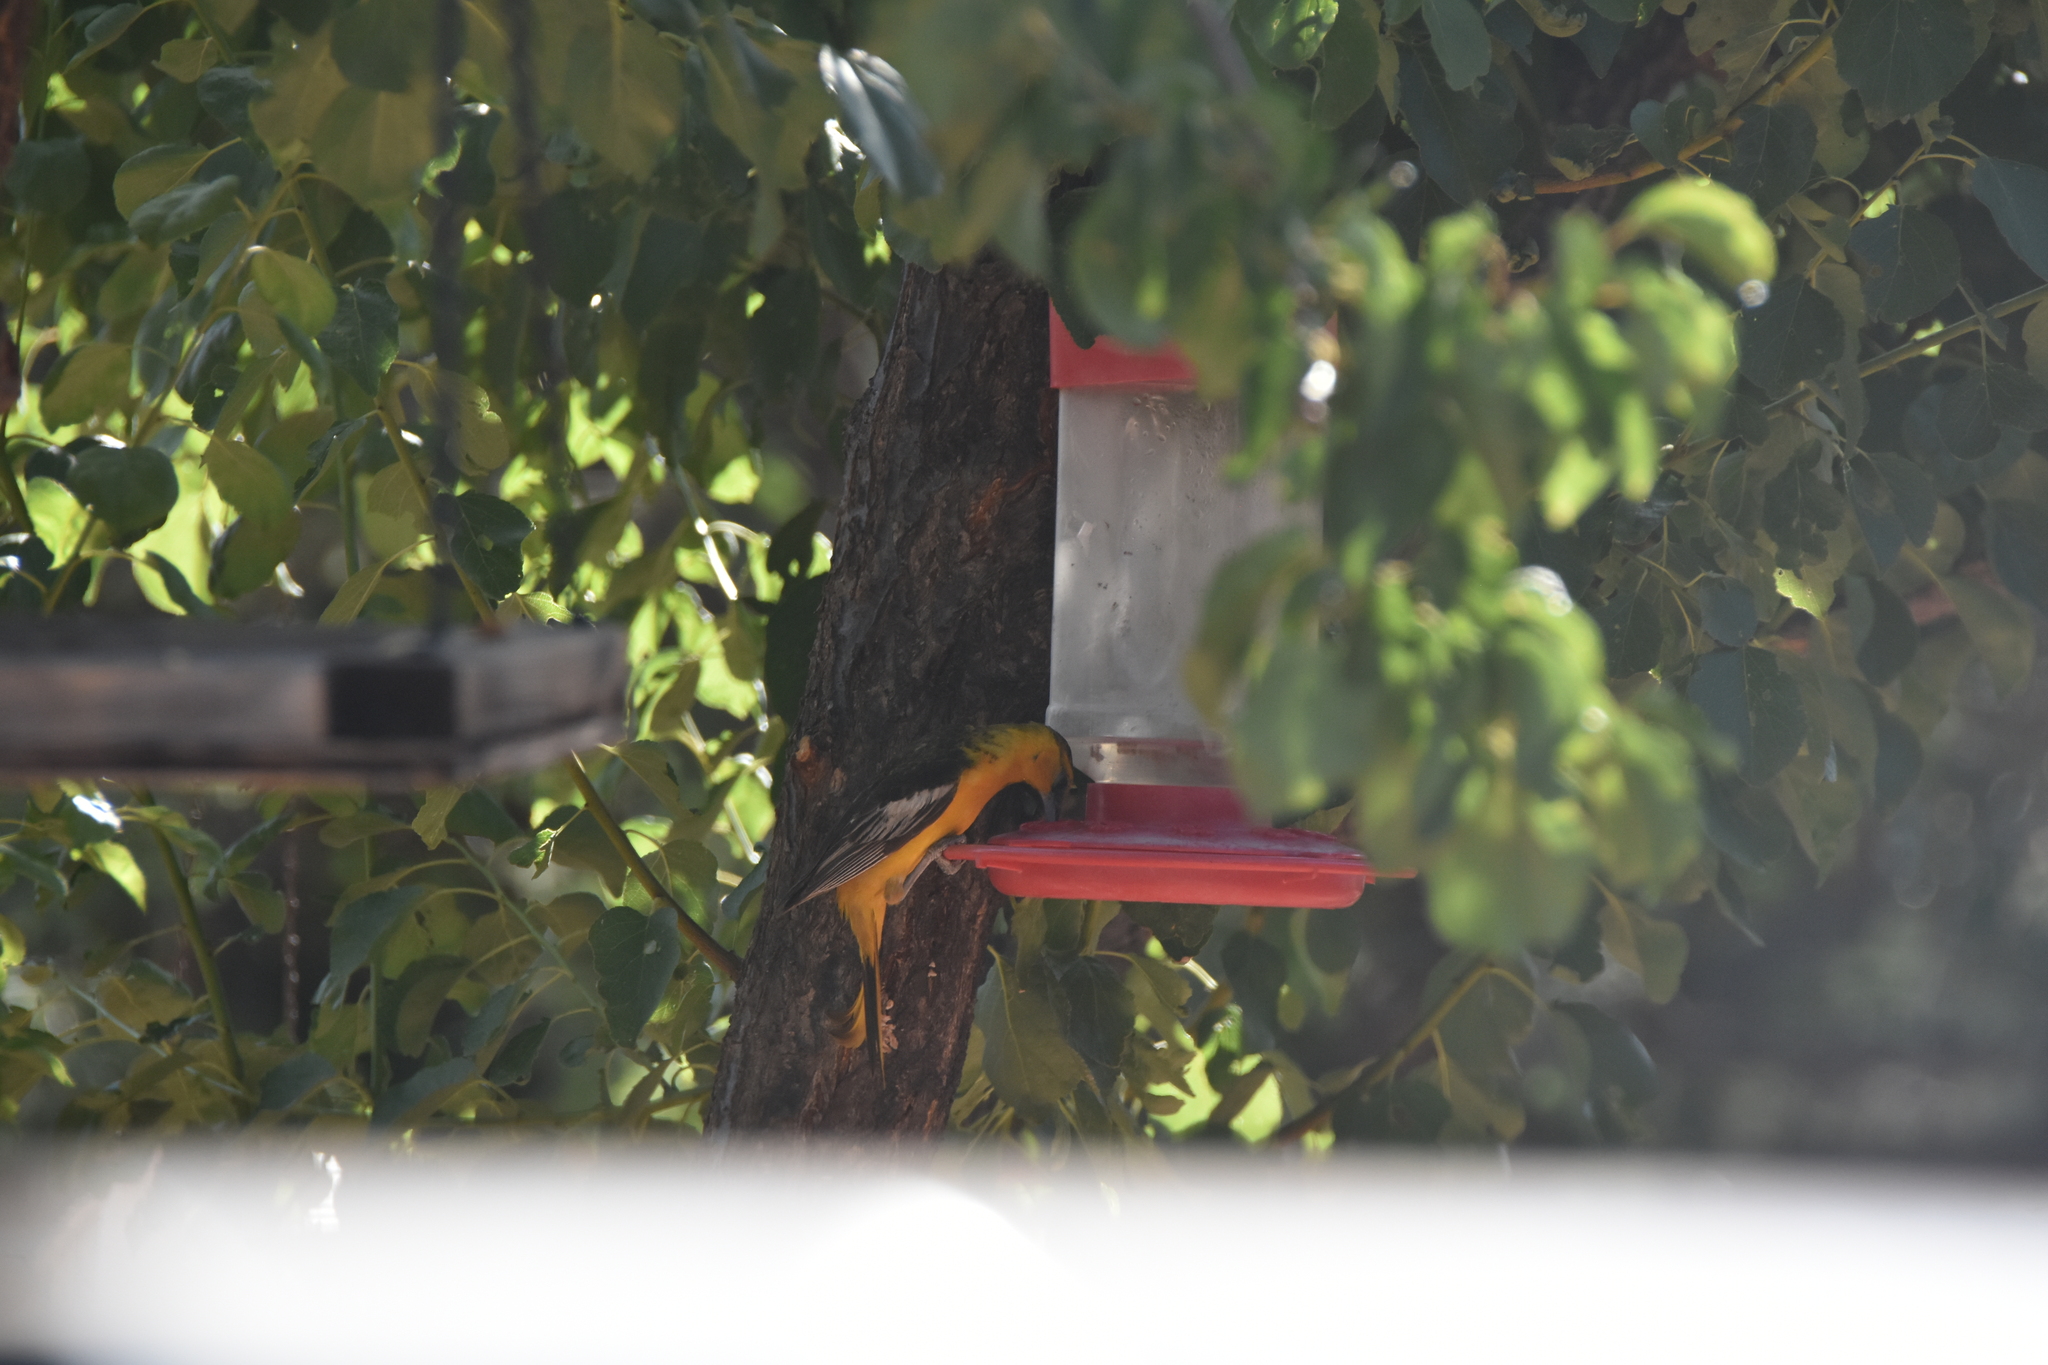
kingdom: Animalia
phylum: Chordata
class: Aves
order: Passeriformes
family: Icteridae
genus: Icterus
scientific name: Icterus bullockii
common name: Bullock's oriole
